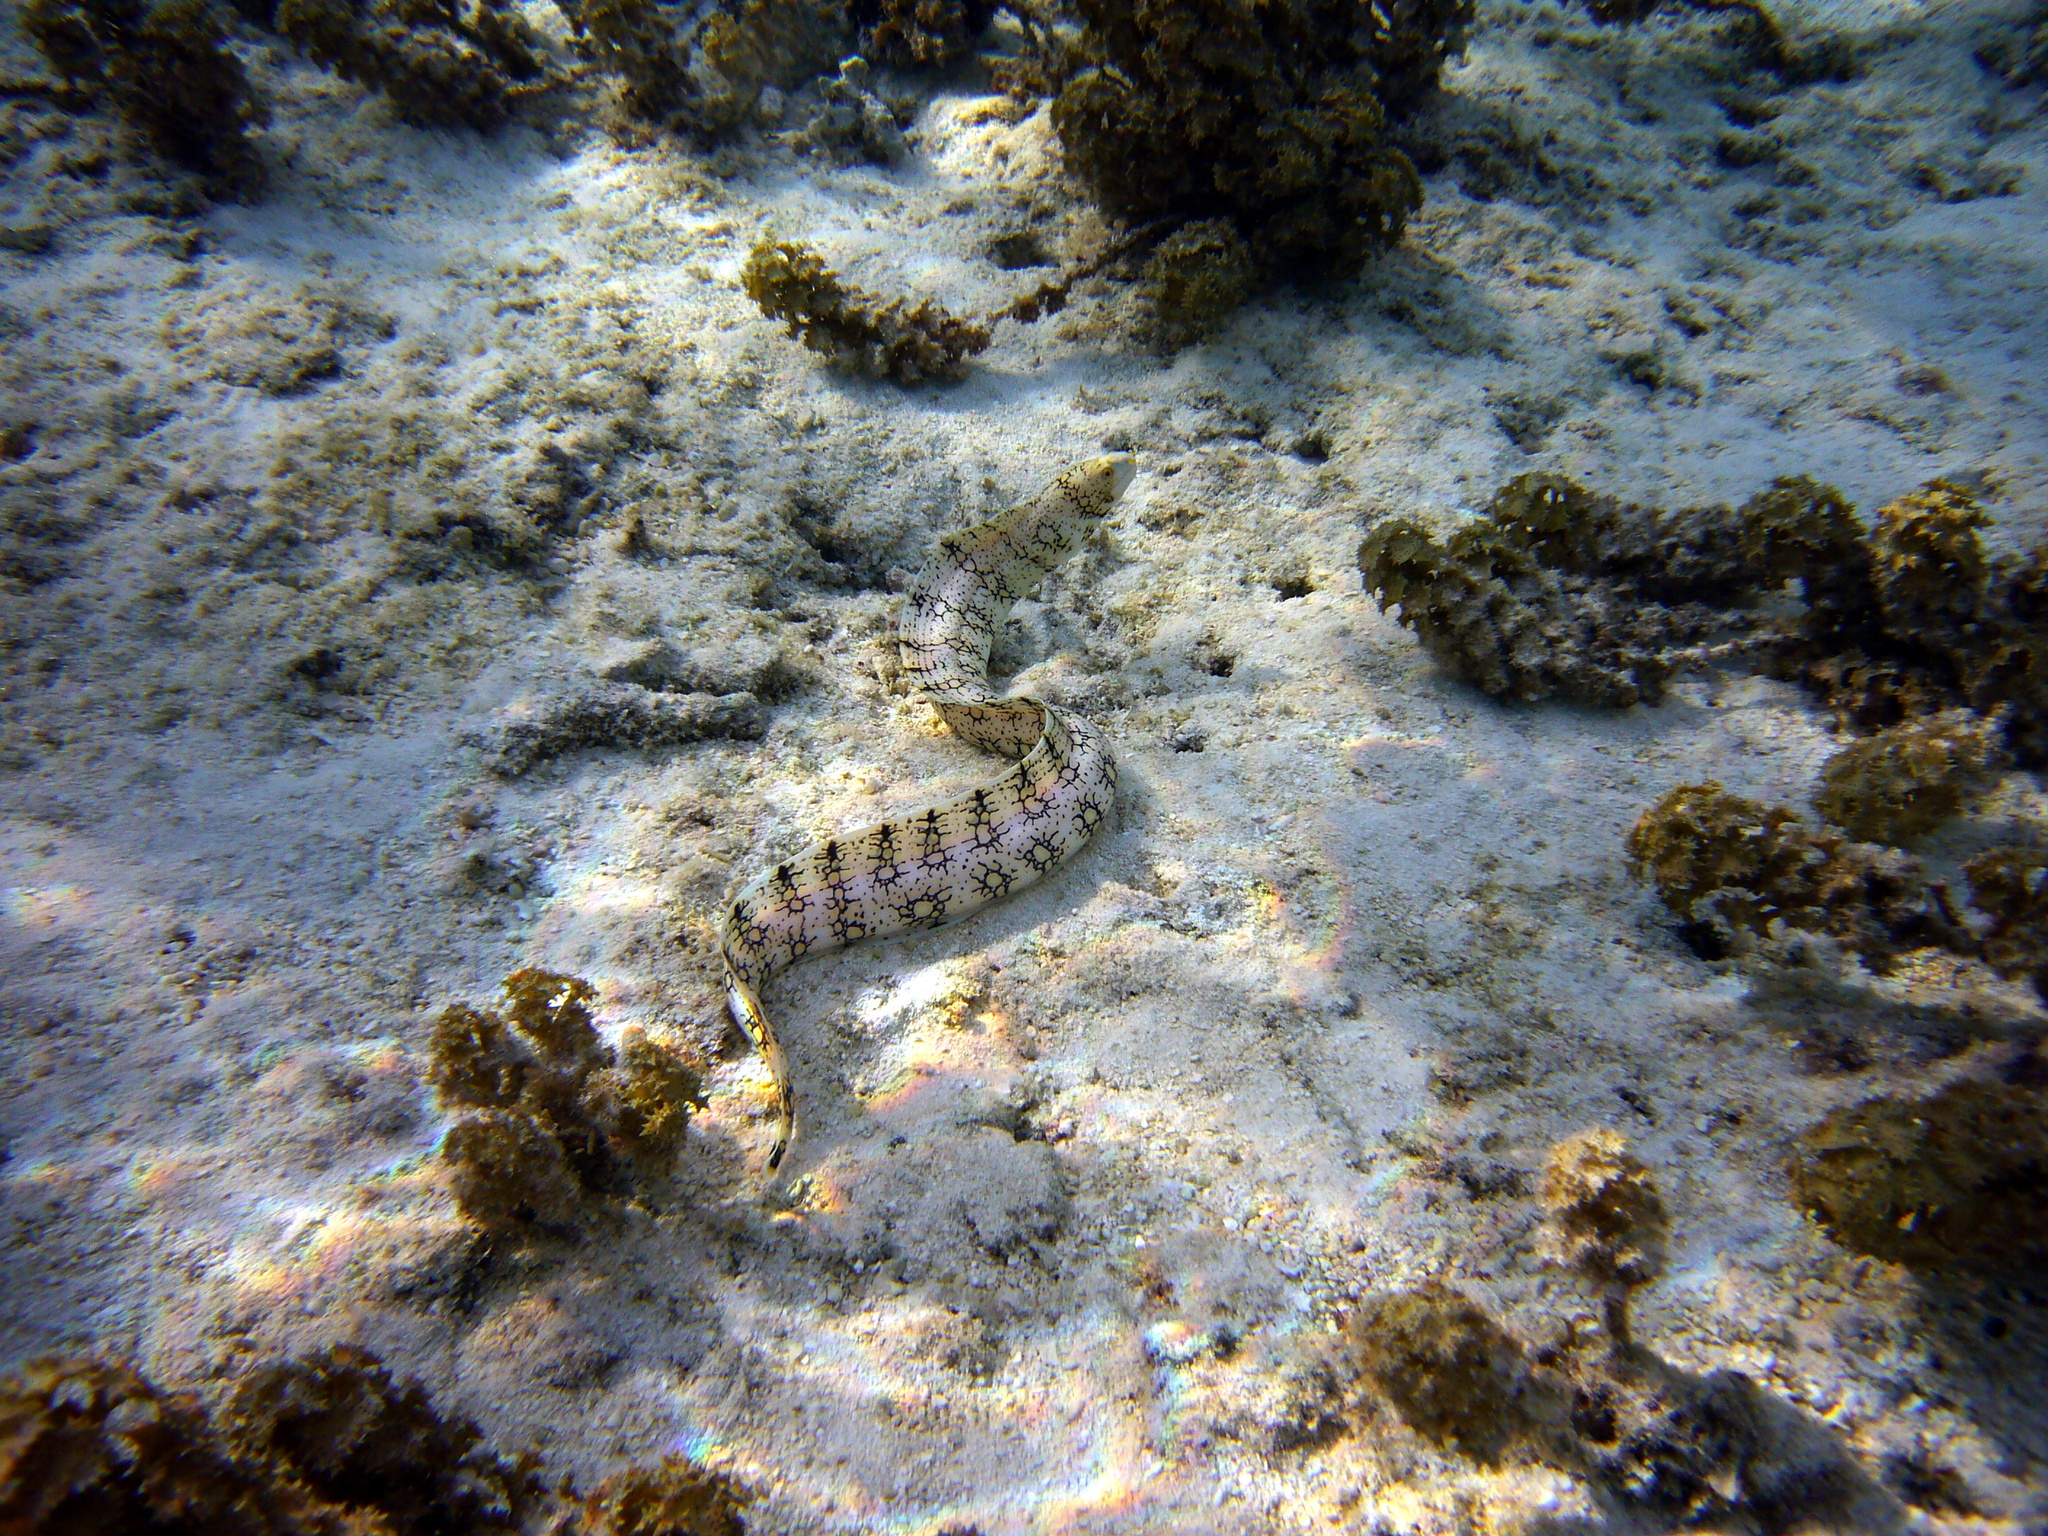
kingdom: Animalia
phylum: Chordata
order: Anguilliformes
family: Muraenidae
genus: Echidna
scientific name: Echidna nebulosa
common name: Snowflake moray
